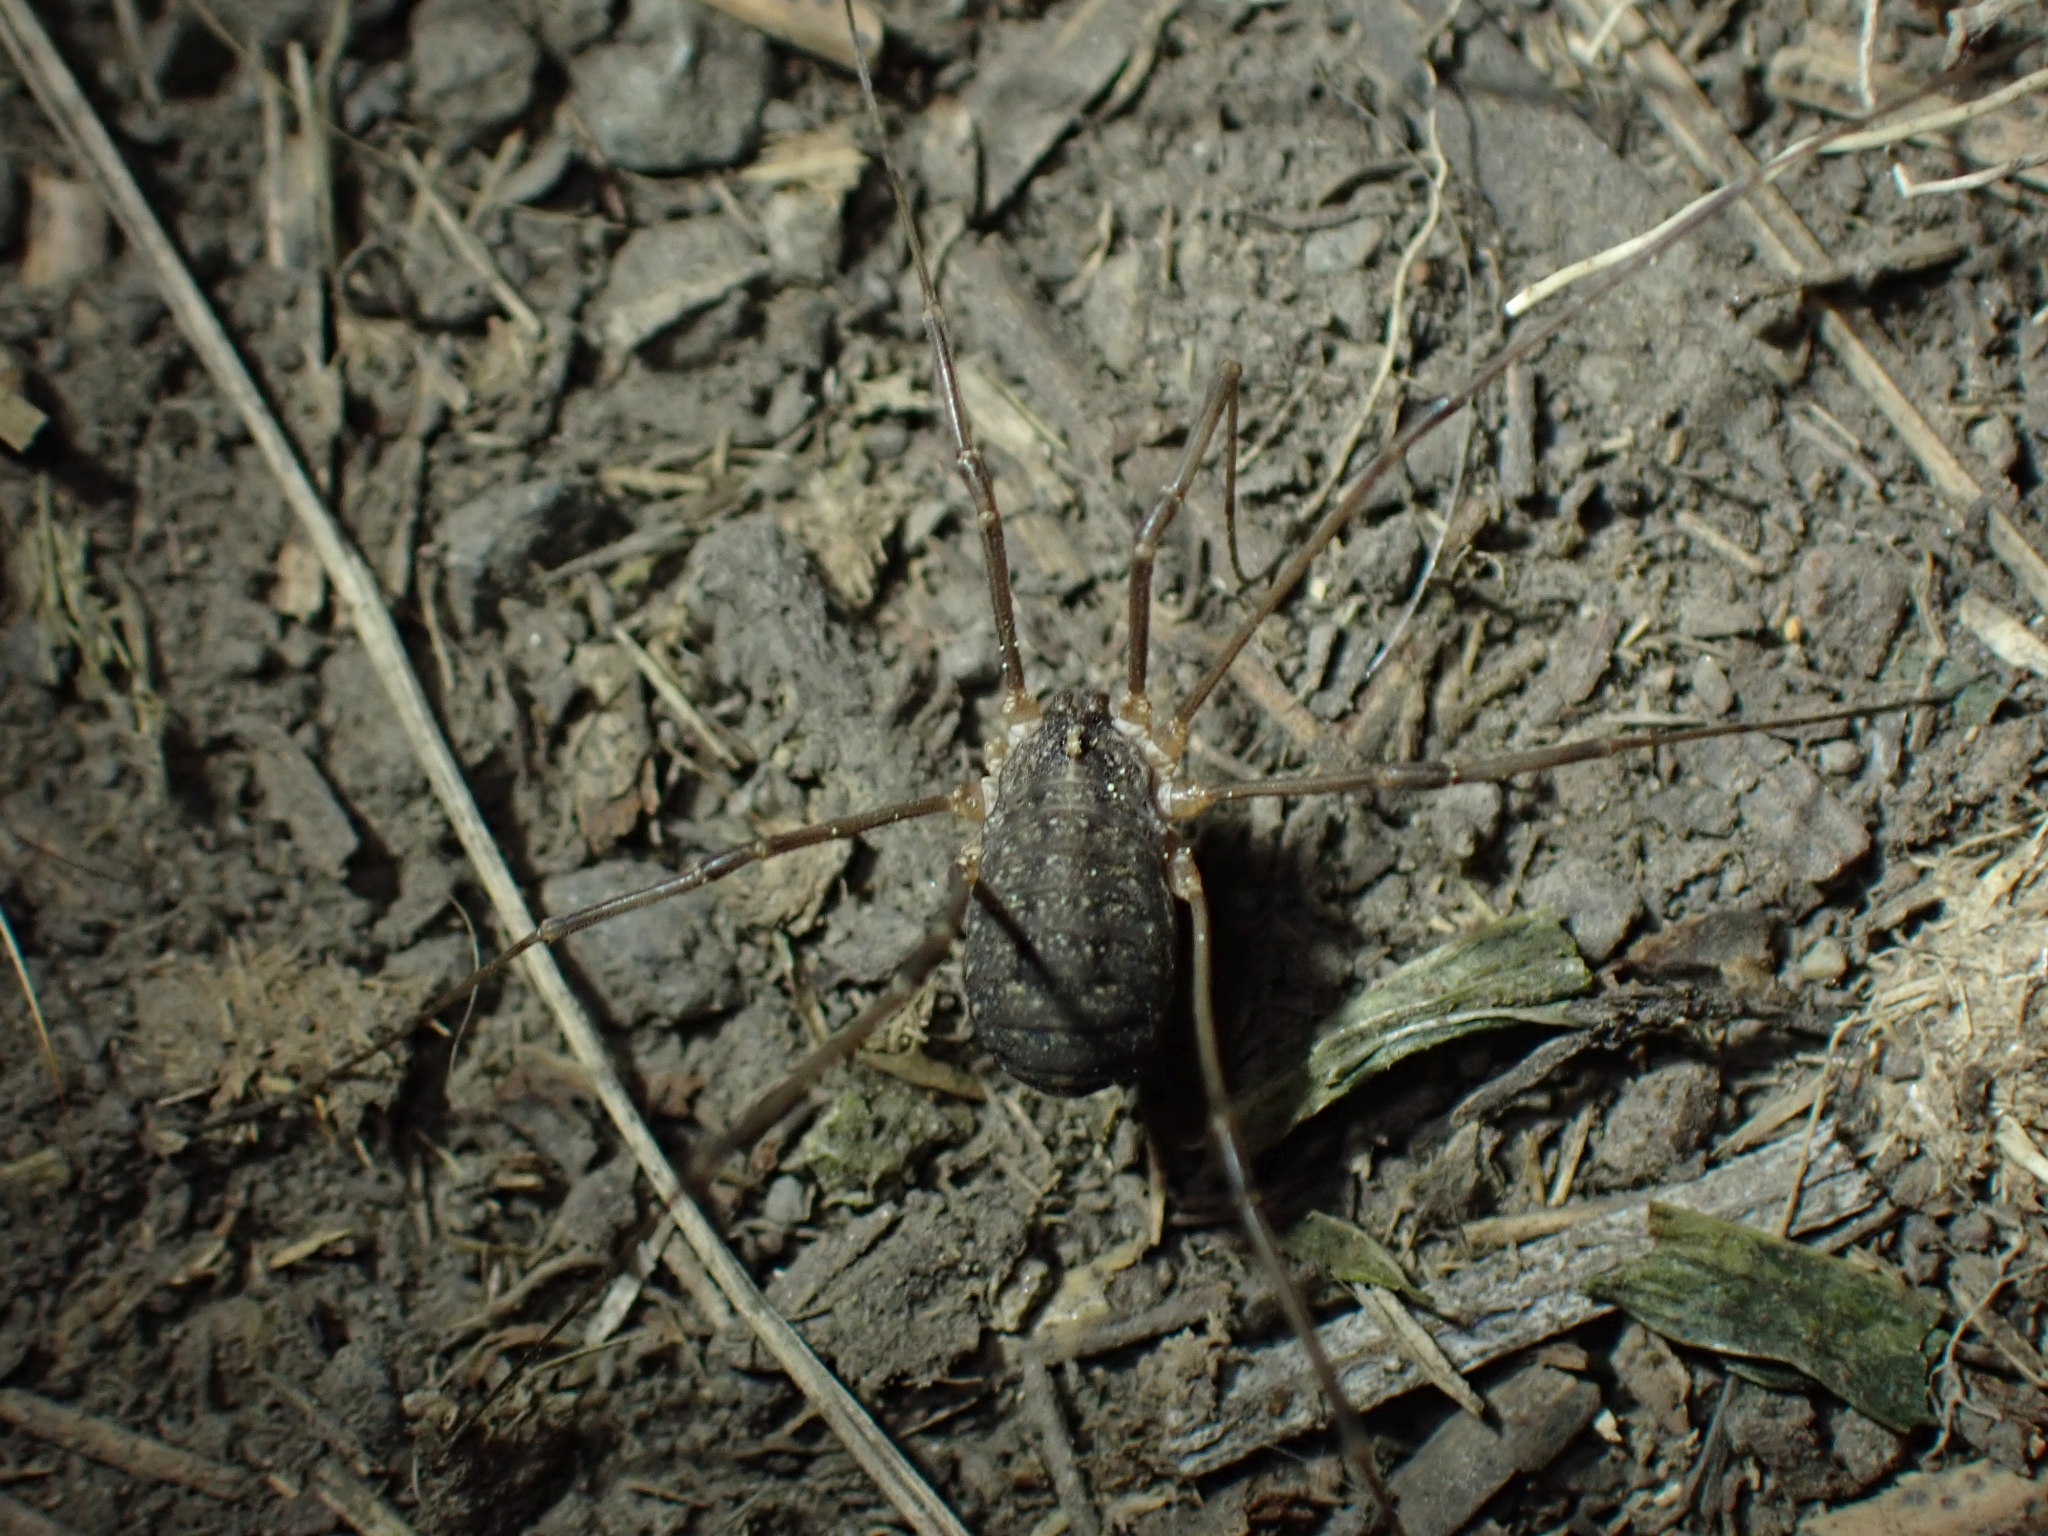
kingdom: Animalia
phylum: Arthropoda
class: Arachnida
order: Opiliones
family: Sclerosomatidae
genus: Togwoteeus
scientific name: Togwoteeus biceps
